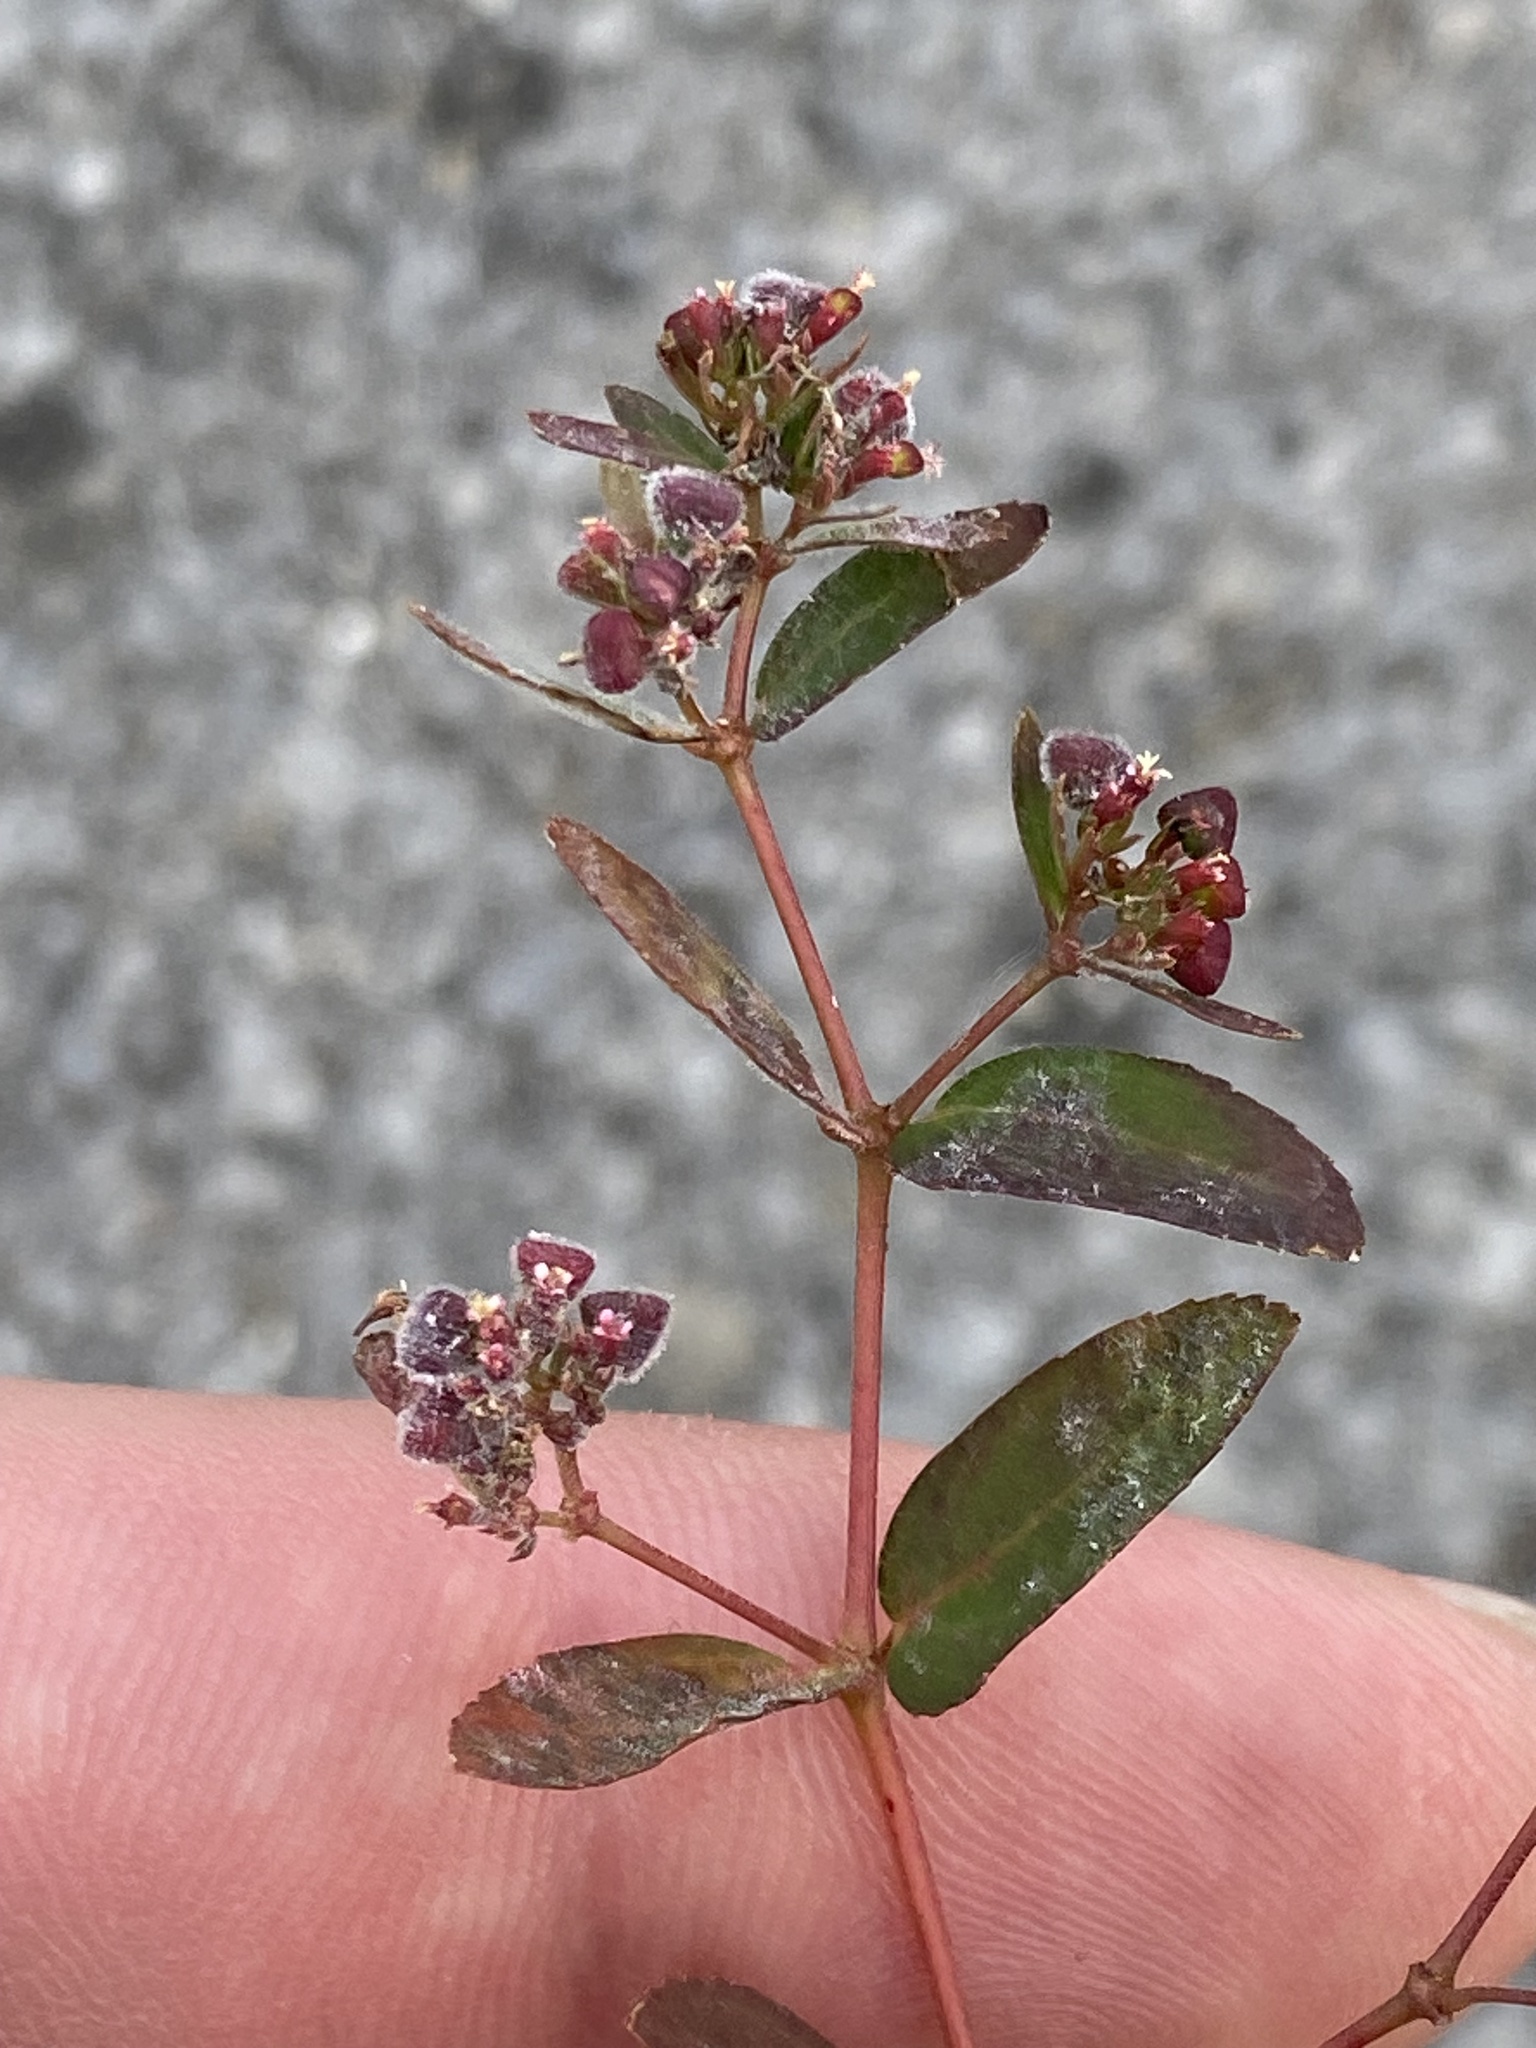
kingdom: Plantae
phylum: Tracheophyta
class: Magnoliopsida
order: Malpighiales
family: Euphorbiaceae
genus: Euphorbia
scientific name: Euphorbia nutans
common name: Eyebane
